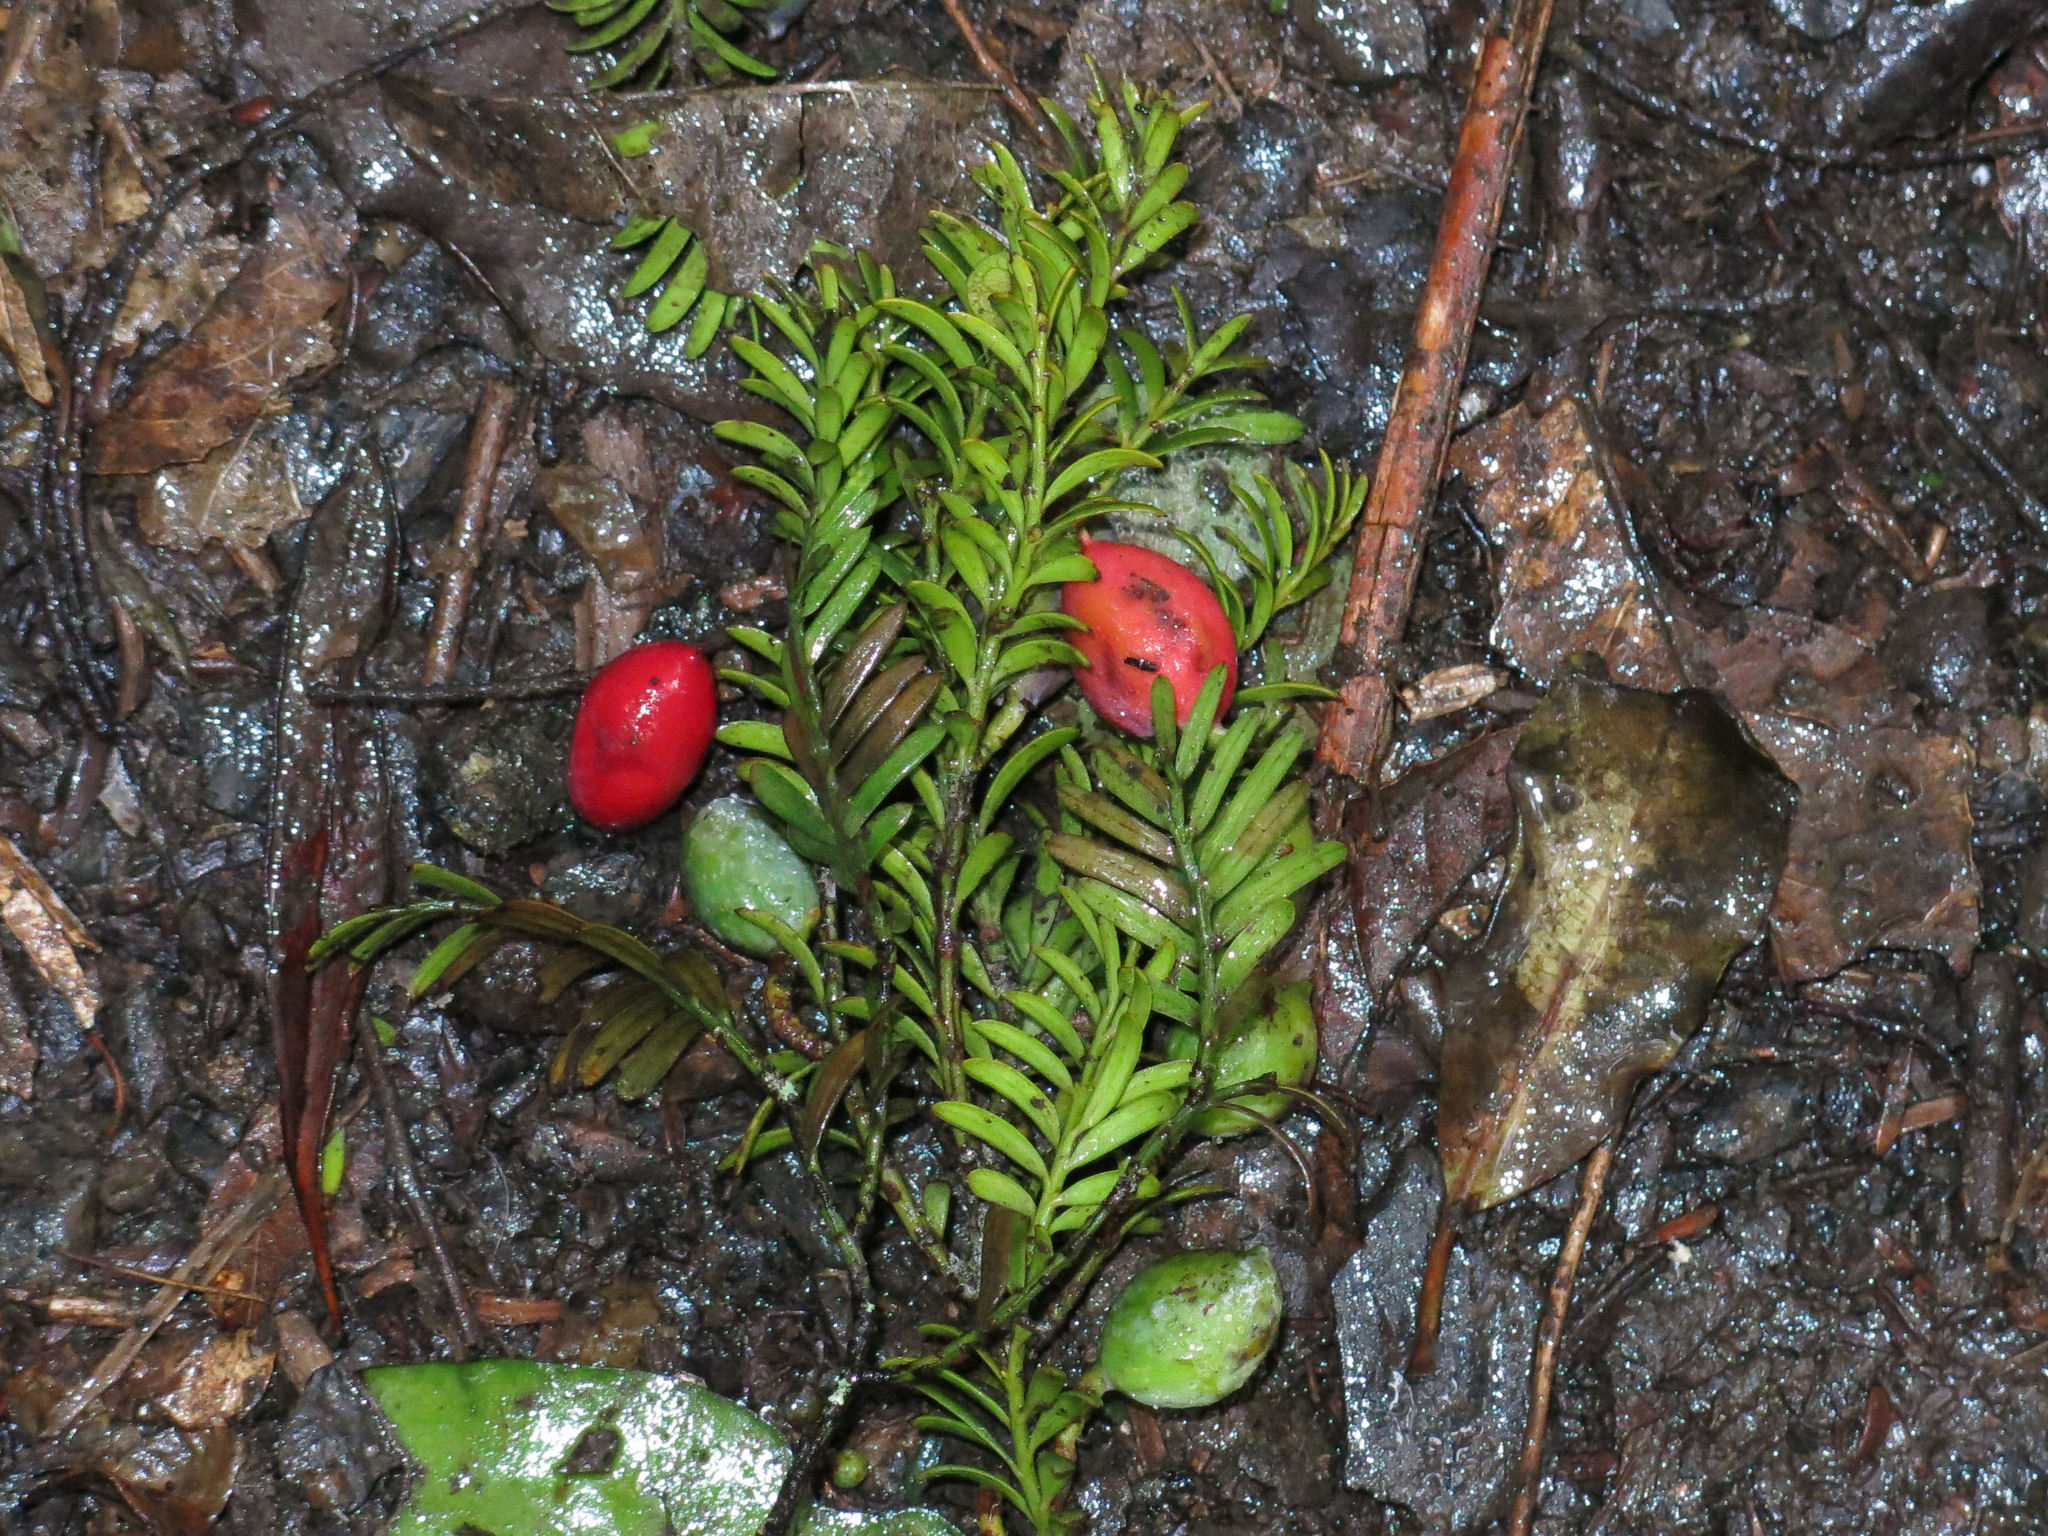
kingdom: Plantae
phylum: Tracheophyta
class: Pinopsida
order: Pinales
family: Podocarpaceae
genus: Prumnopitys
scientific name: Prumnopitys ferruginea
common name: Brown pine
